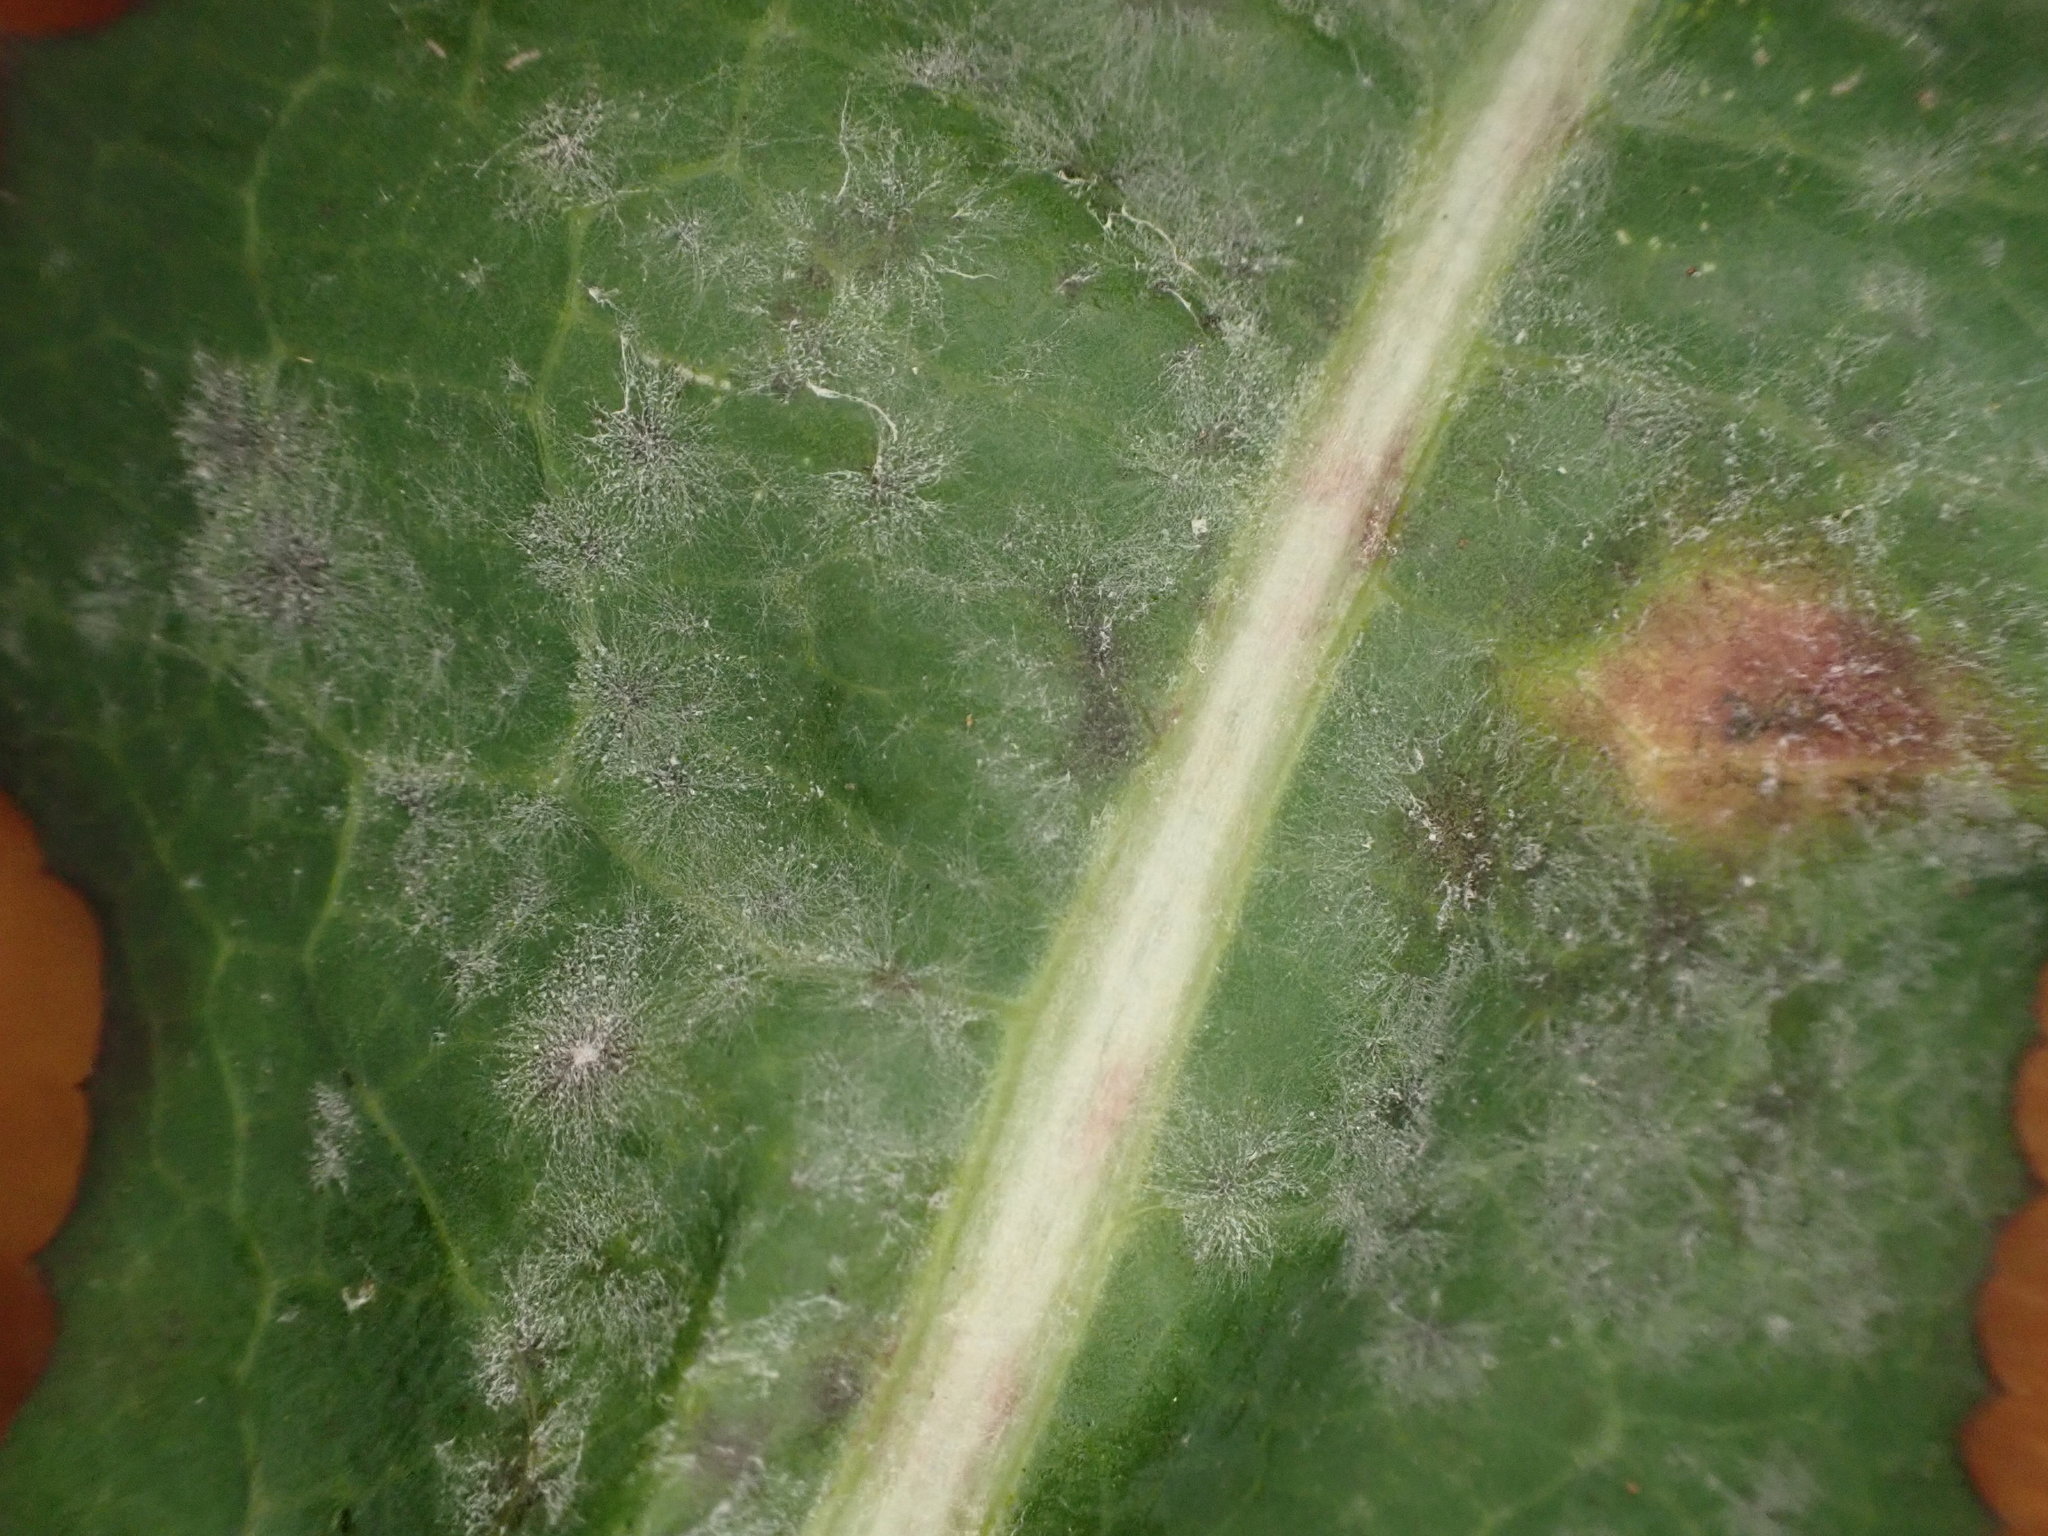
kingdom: Fungi
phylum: Ascomycota
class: Leotiomycetes
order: Helotiales
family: Erysiphaceae
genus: Golovinomyces
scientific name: Golovinomyces bolayi
